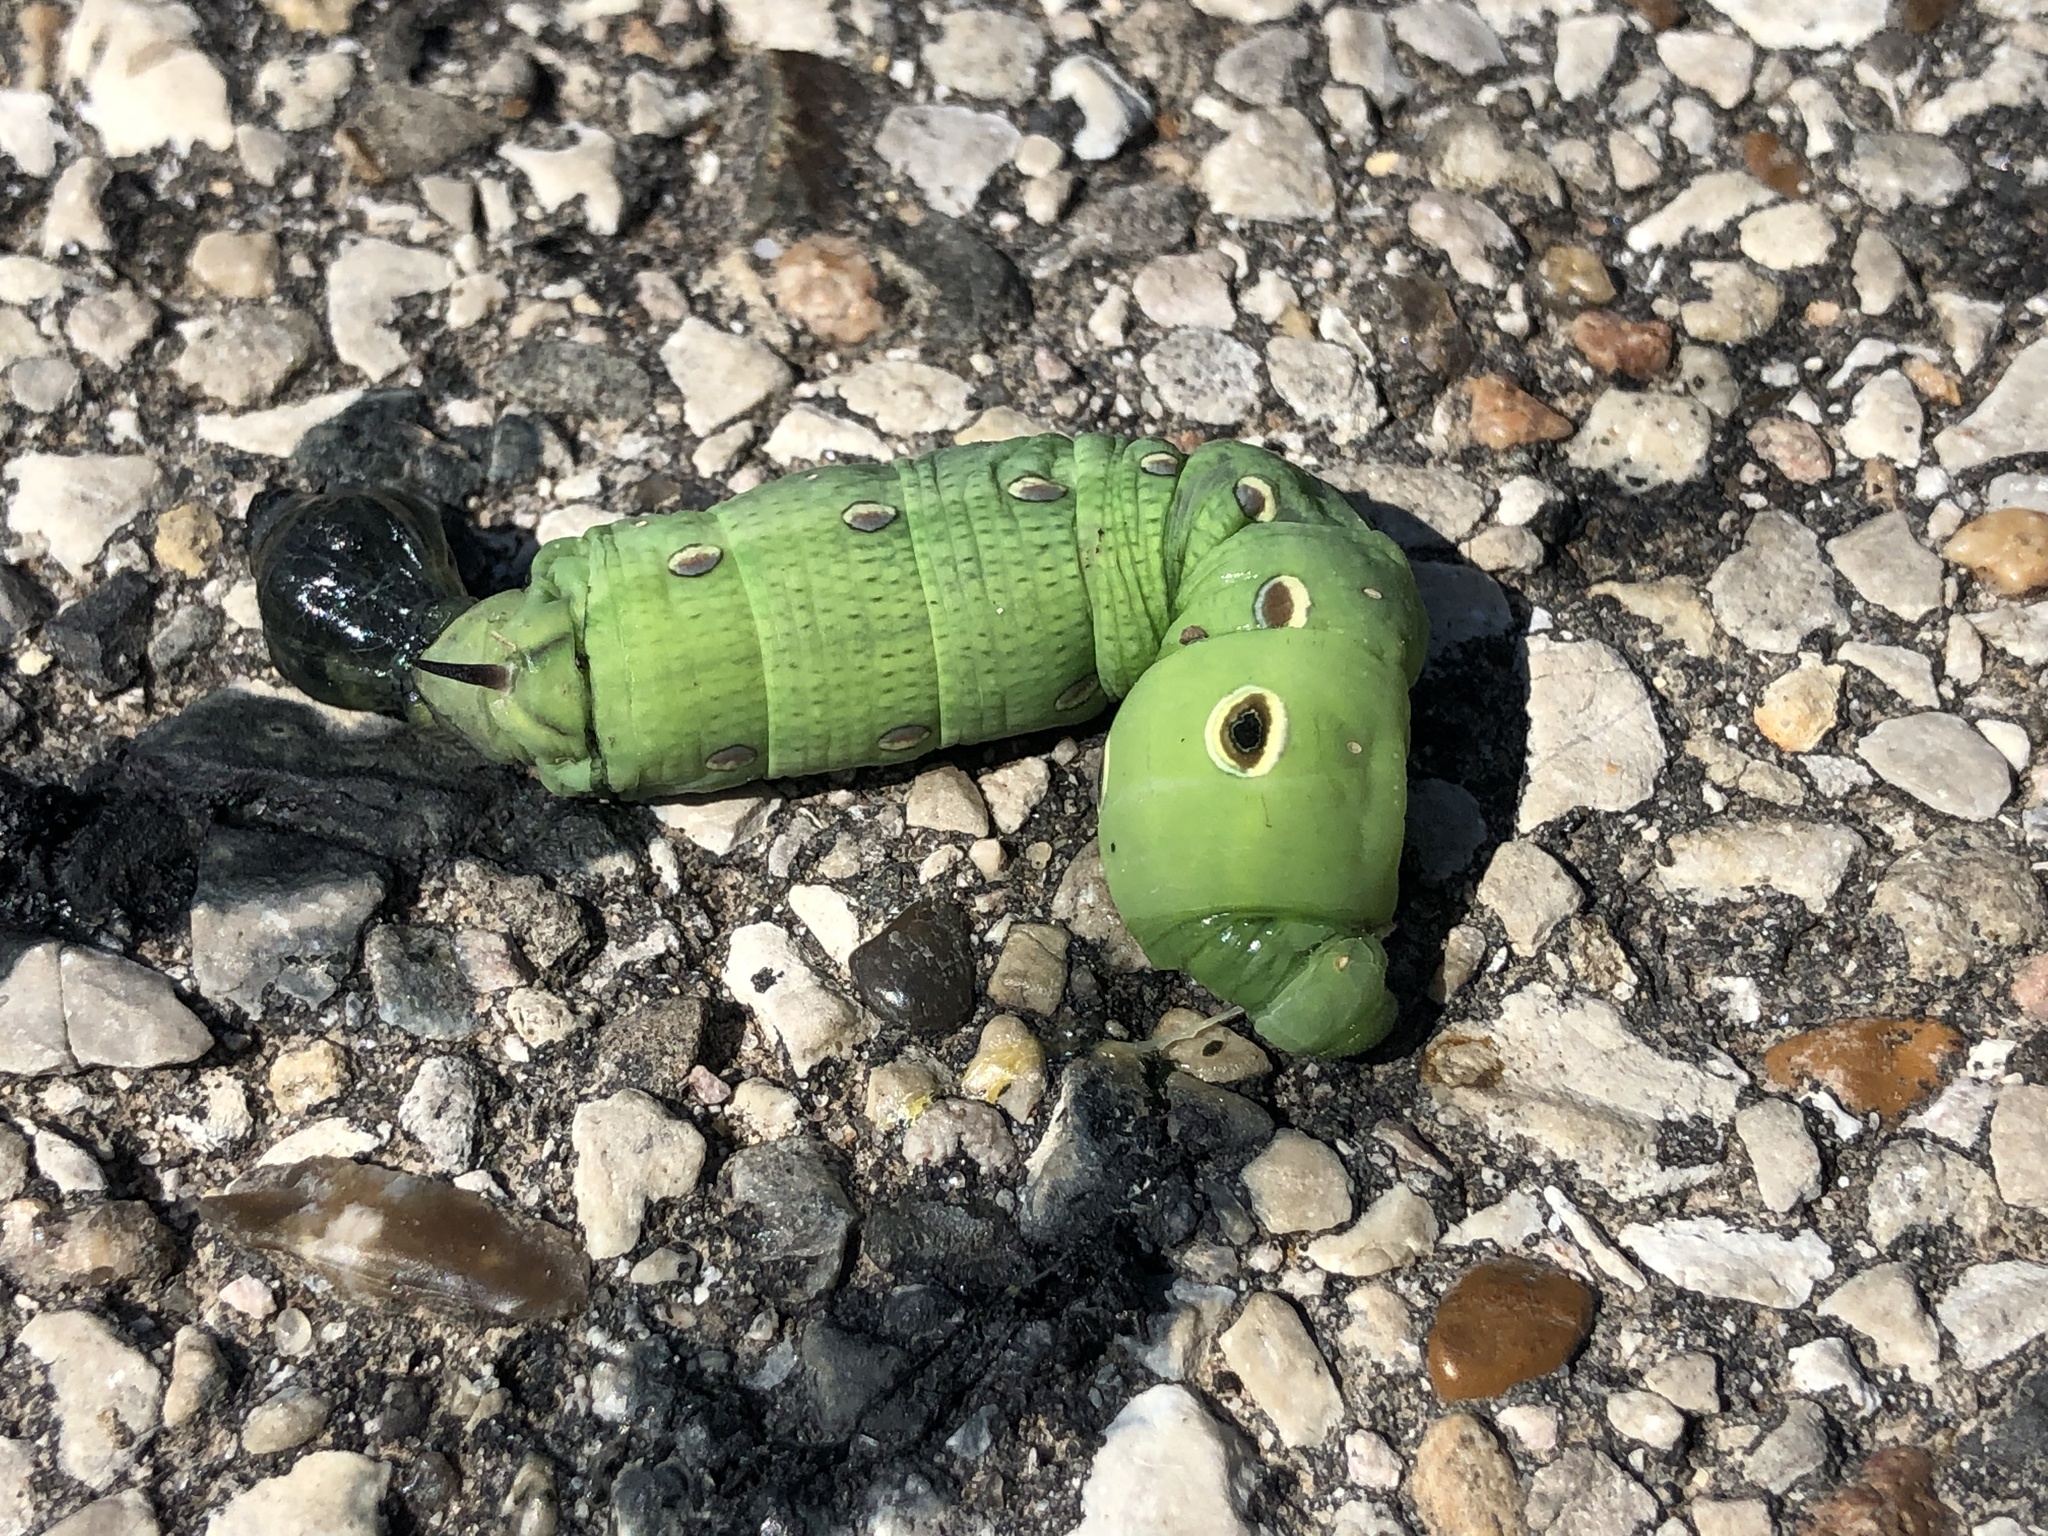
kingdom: Animalia
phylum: Arthropoda
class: Insecta
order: Lepidoptera
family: Sphingidae
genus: Xylophanes
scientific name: Xylophanes tersa
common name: Tersa sphinx
